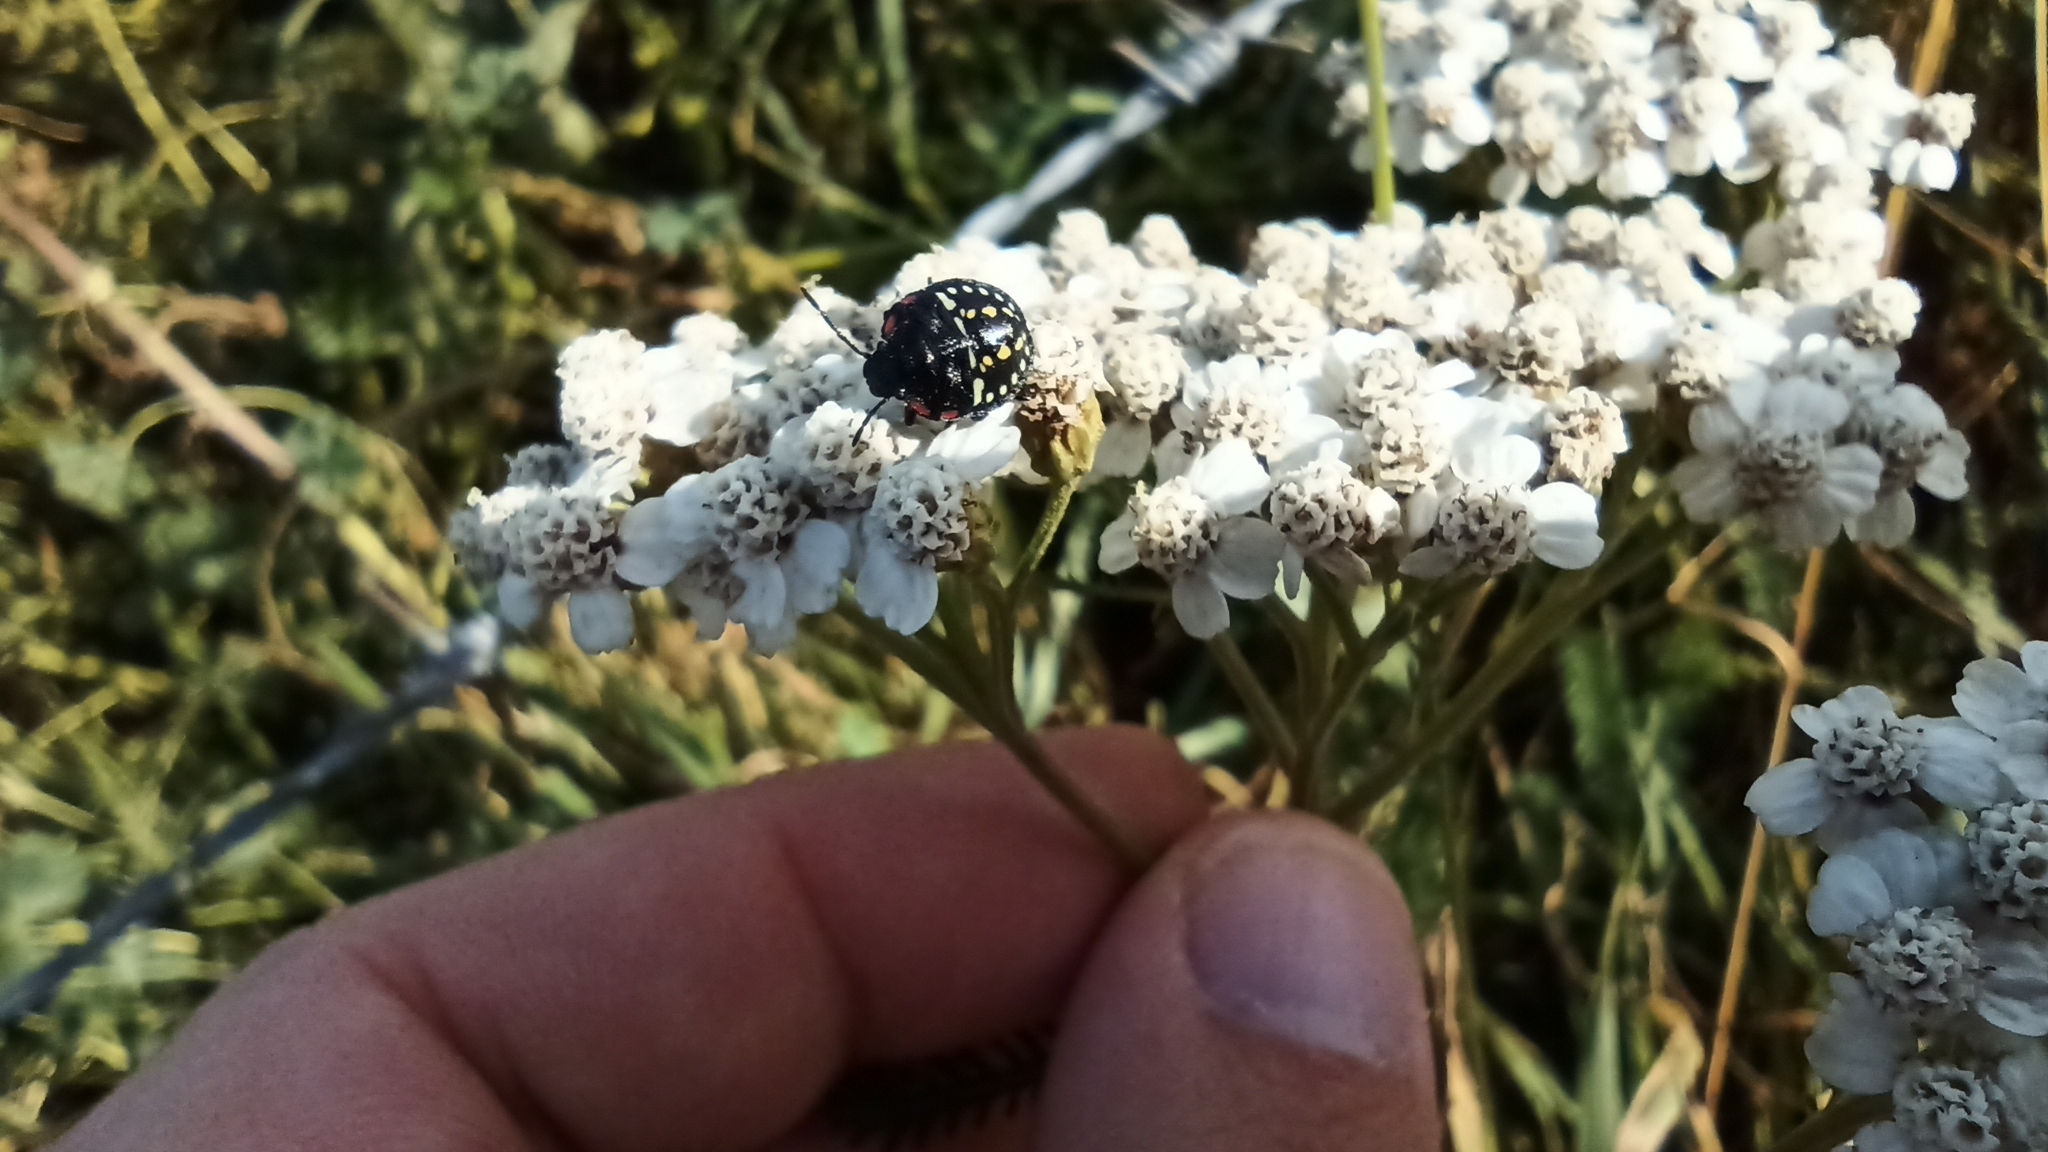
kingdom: Animalia
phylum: Arthropoda
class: Insecta
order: Hemiptera
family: Pentatomidae
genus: Nezara
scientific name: Nezara viridula
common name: Southern green stink bug
